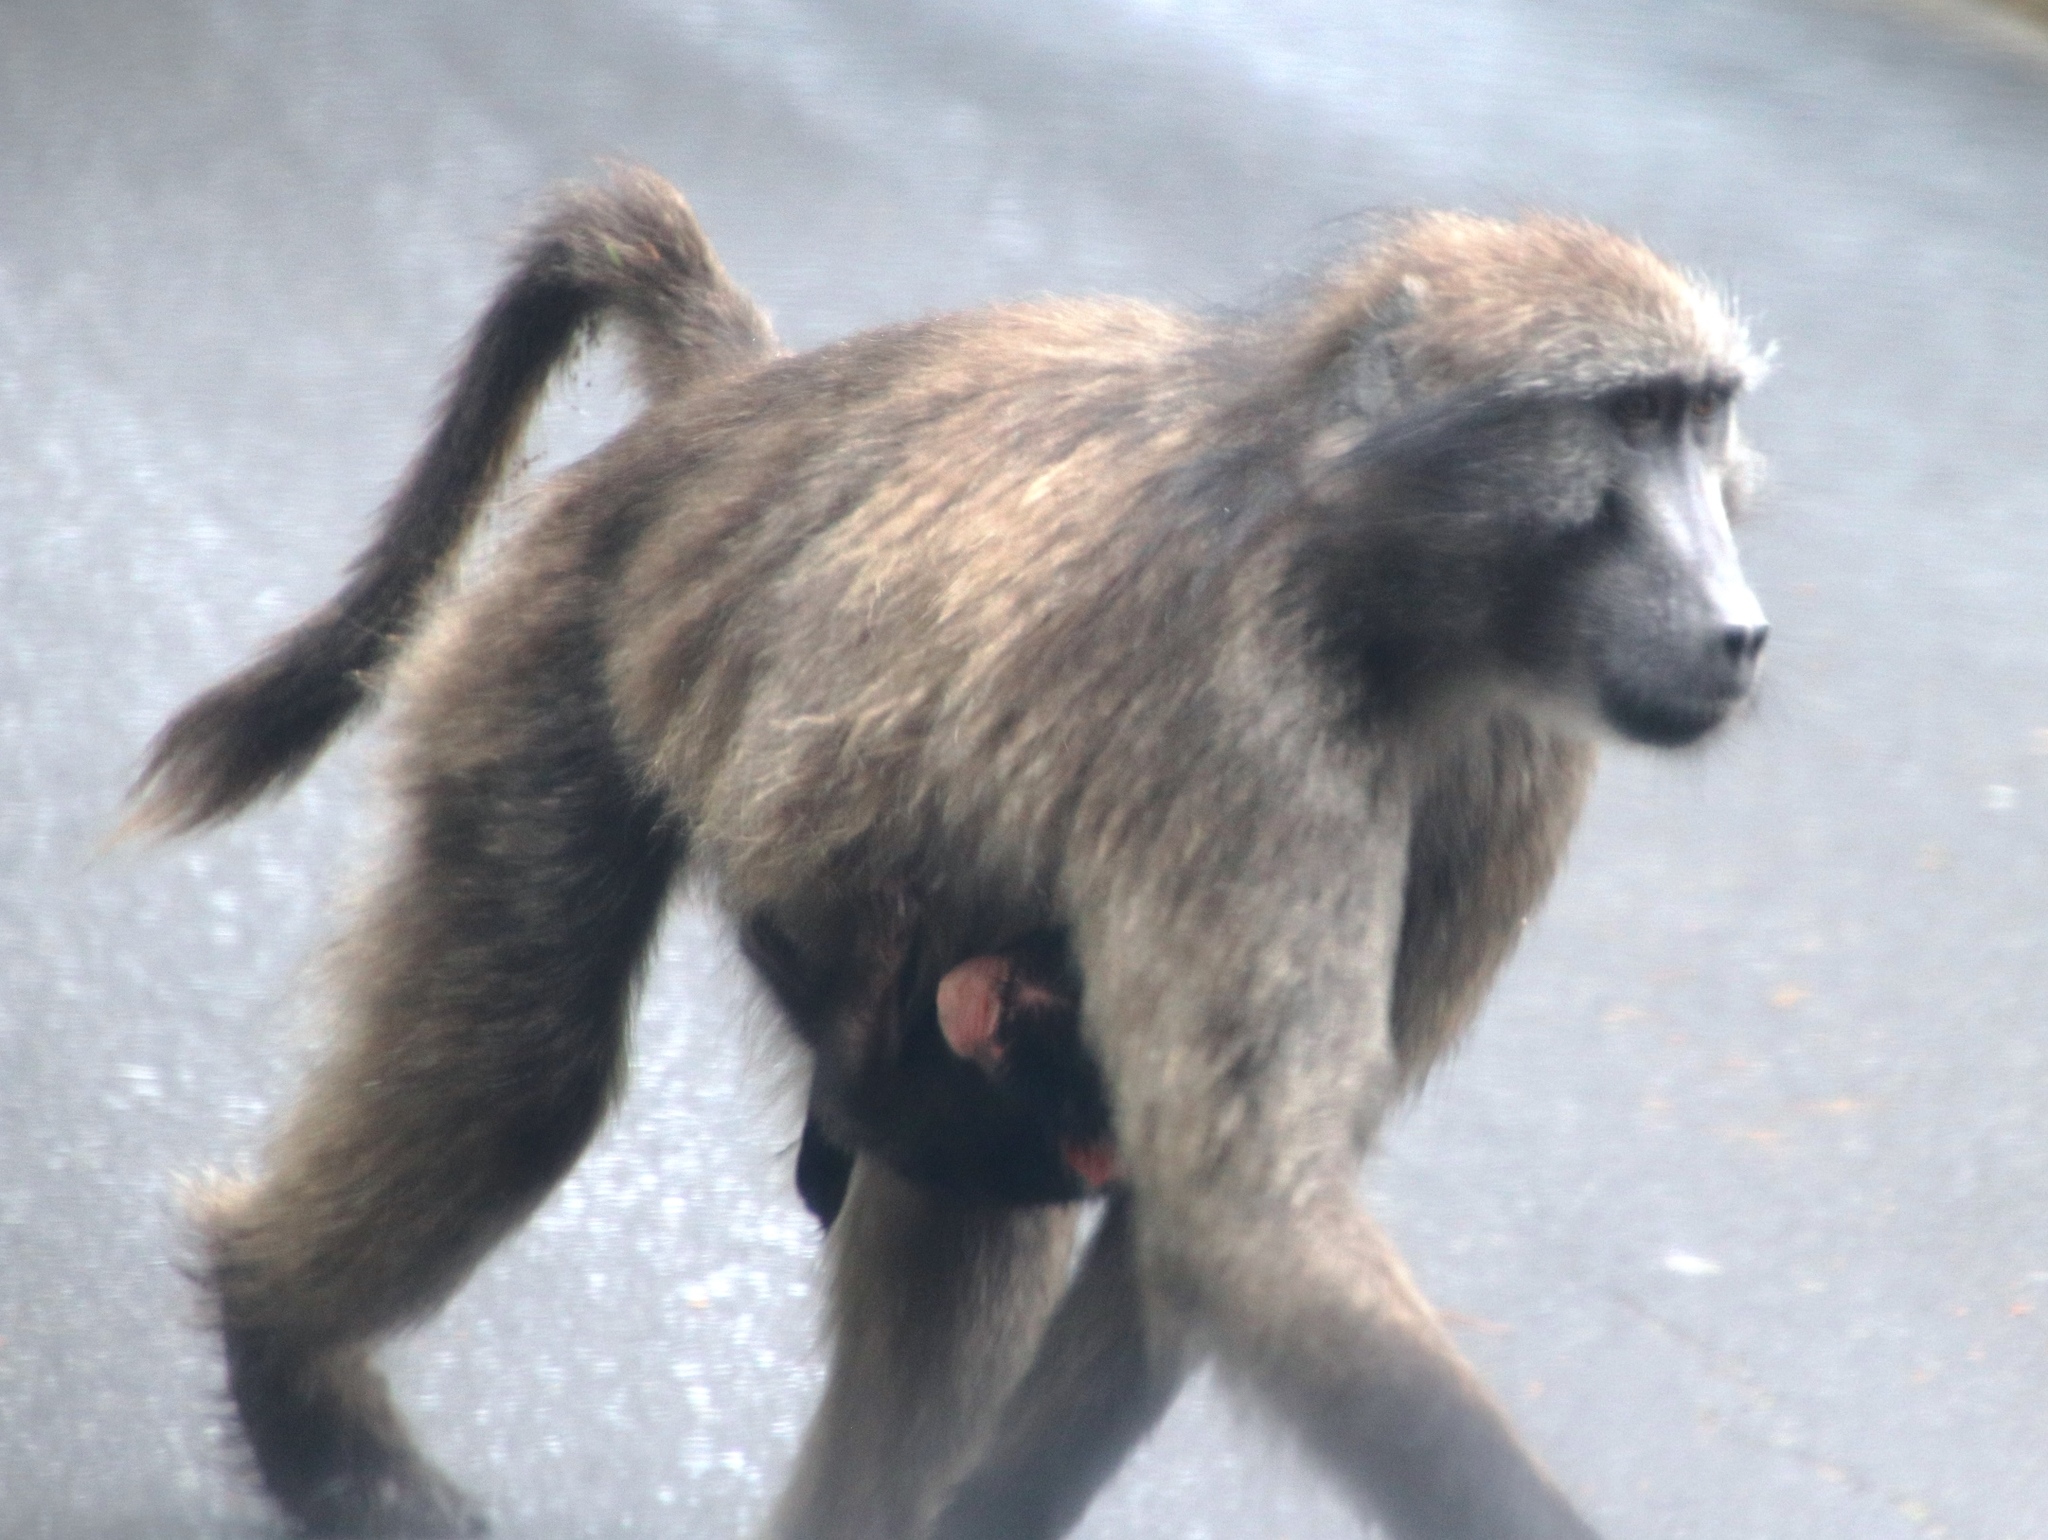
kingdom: Animalia
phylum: Chordata
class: Mammalia
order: Primates
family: Cercopithecidae
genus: Papio
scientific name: Papio ursinus
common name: Chacma baboon
